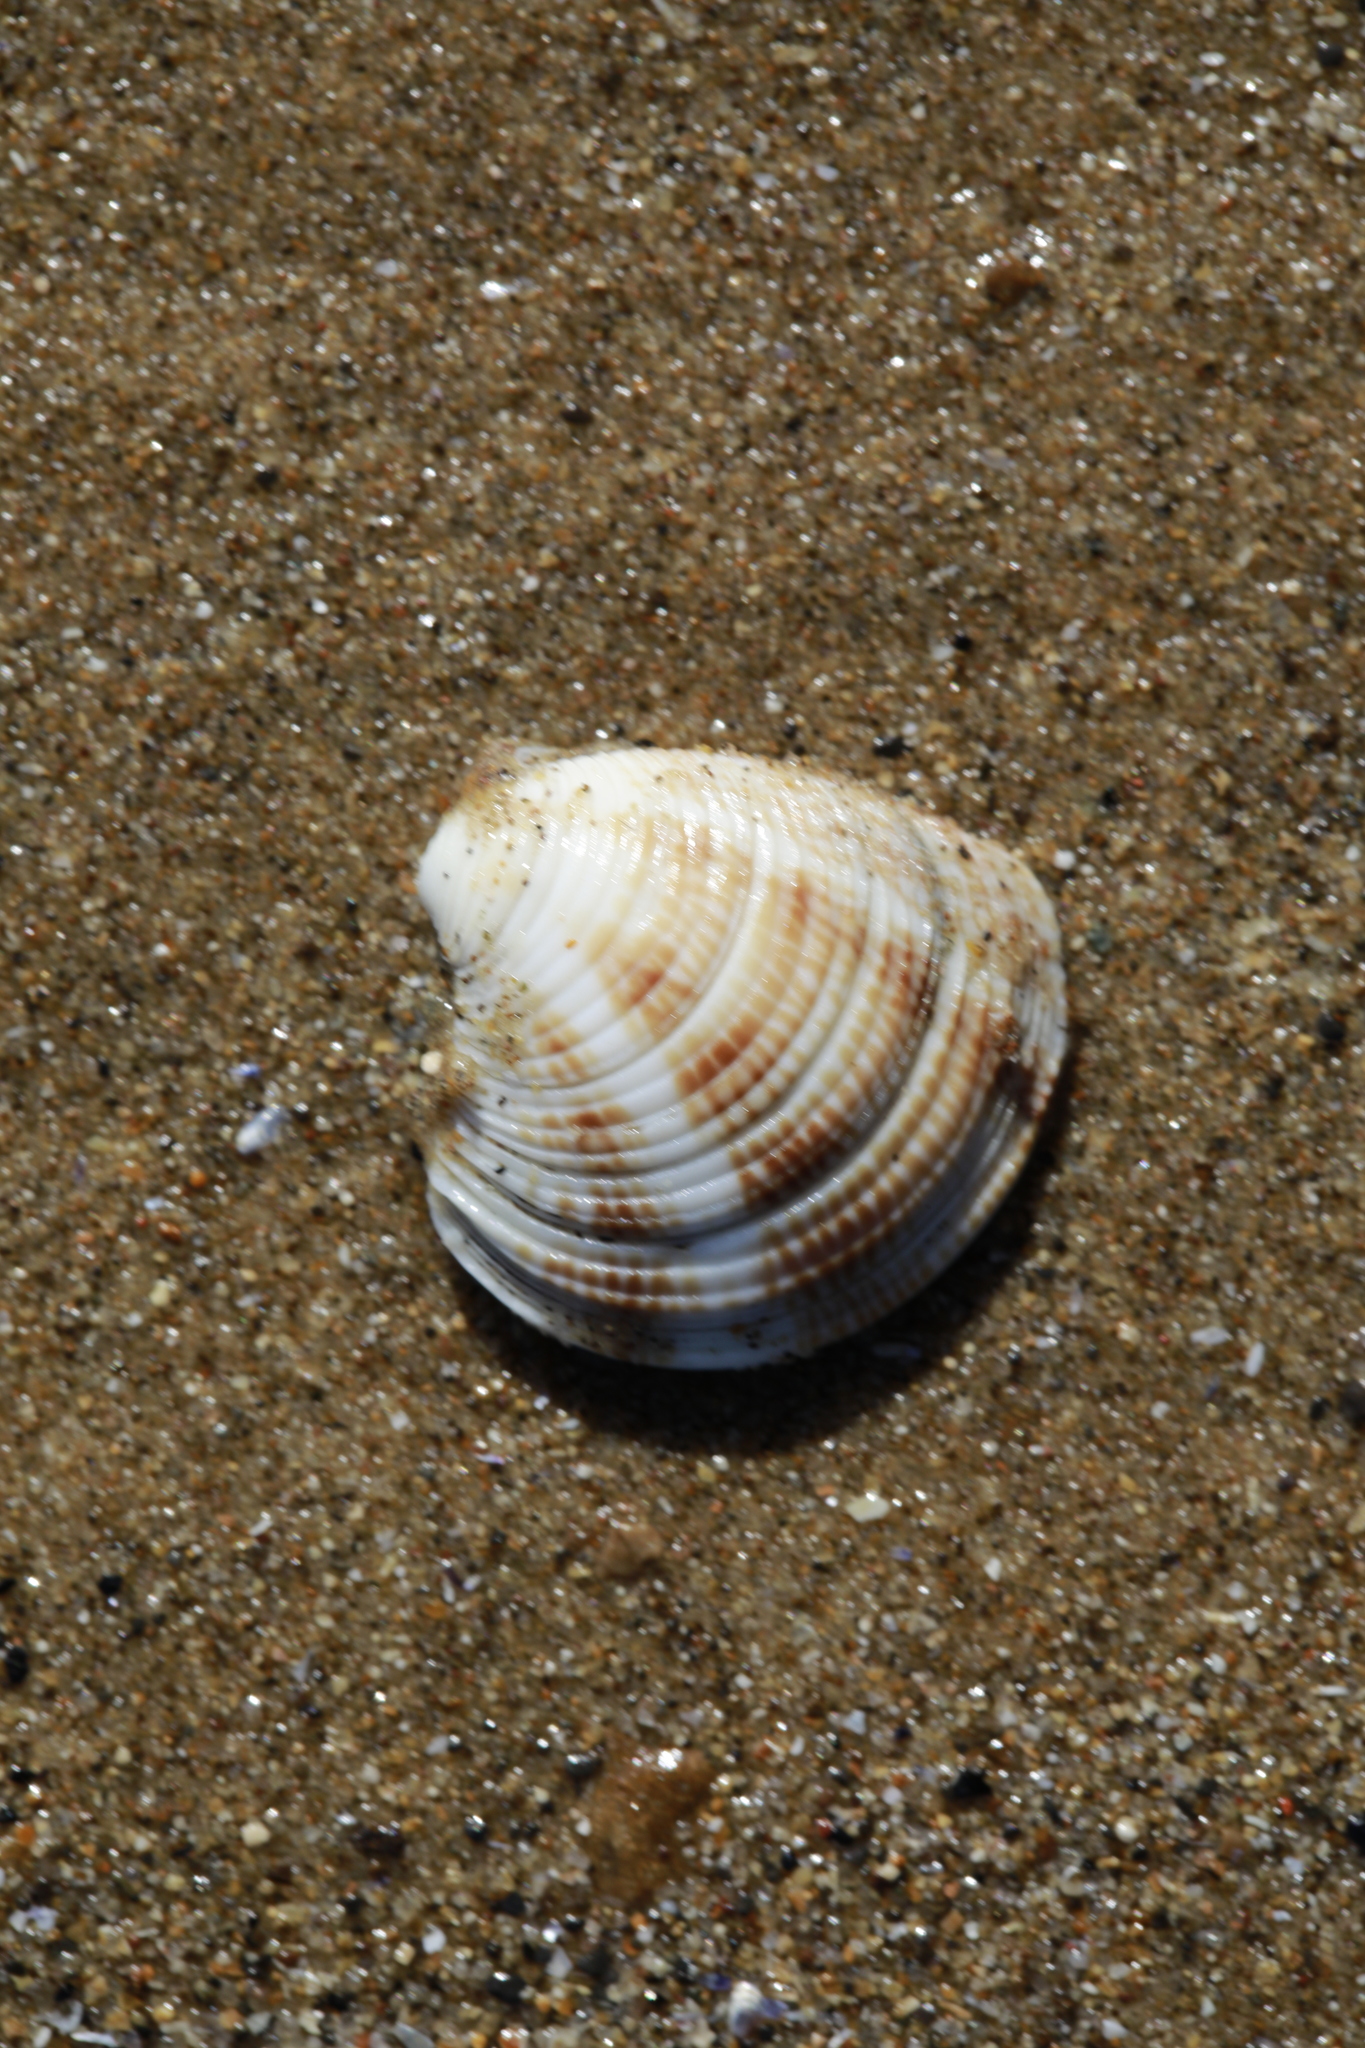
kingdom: Animalia
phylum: Mollusca
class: Bivalvia
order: Venerida
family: Veneridae
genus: Chamelea
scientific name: Chamelea striatula
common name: Striped venus
